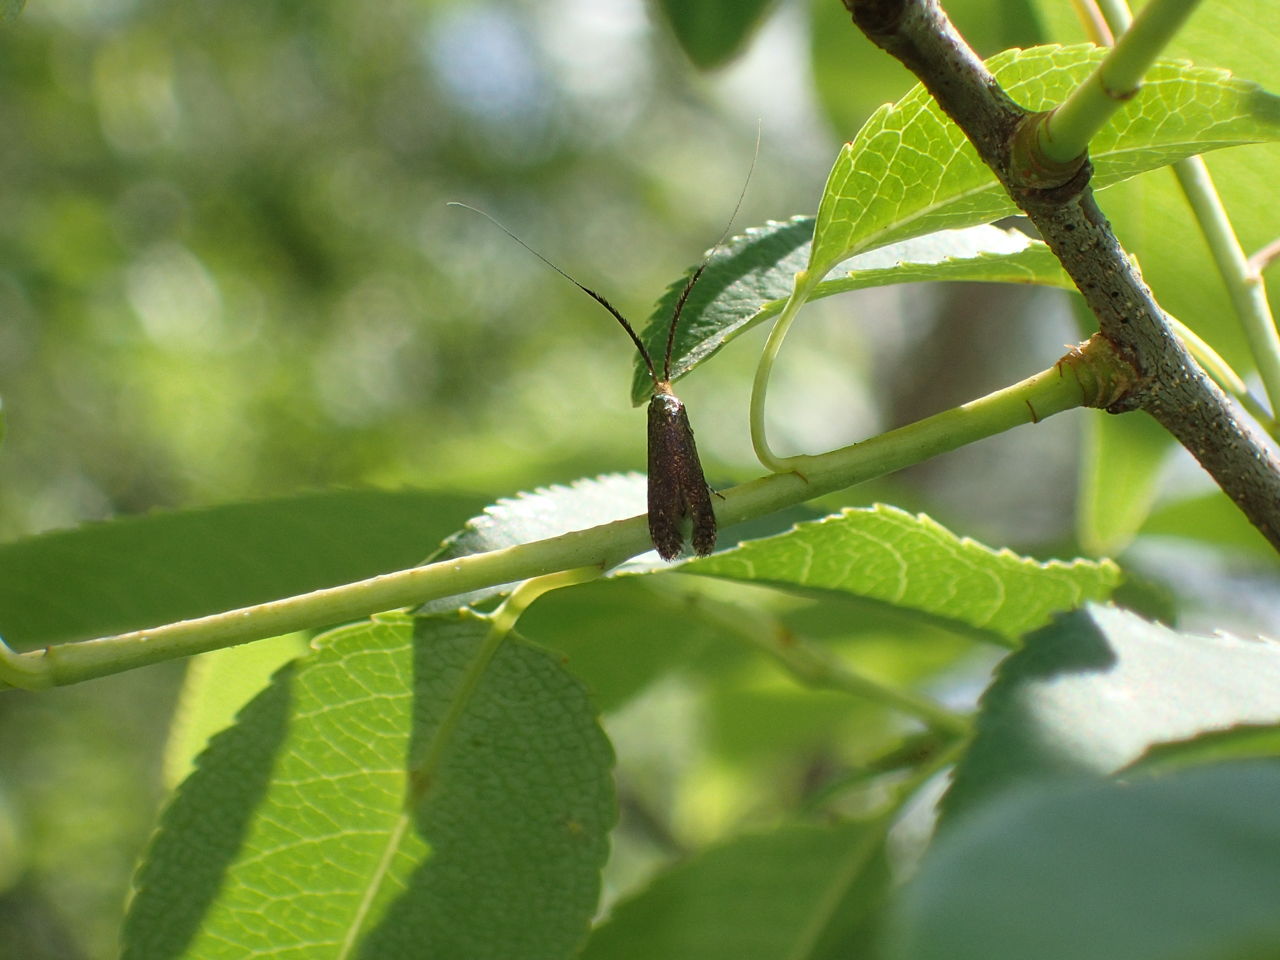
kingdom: Animalia
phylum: Arthropoda
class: Insecta
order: Lepidoptera
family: Adelidae
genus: Adela
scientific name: Adela caeruleella
